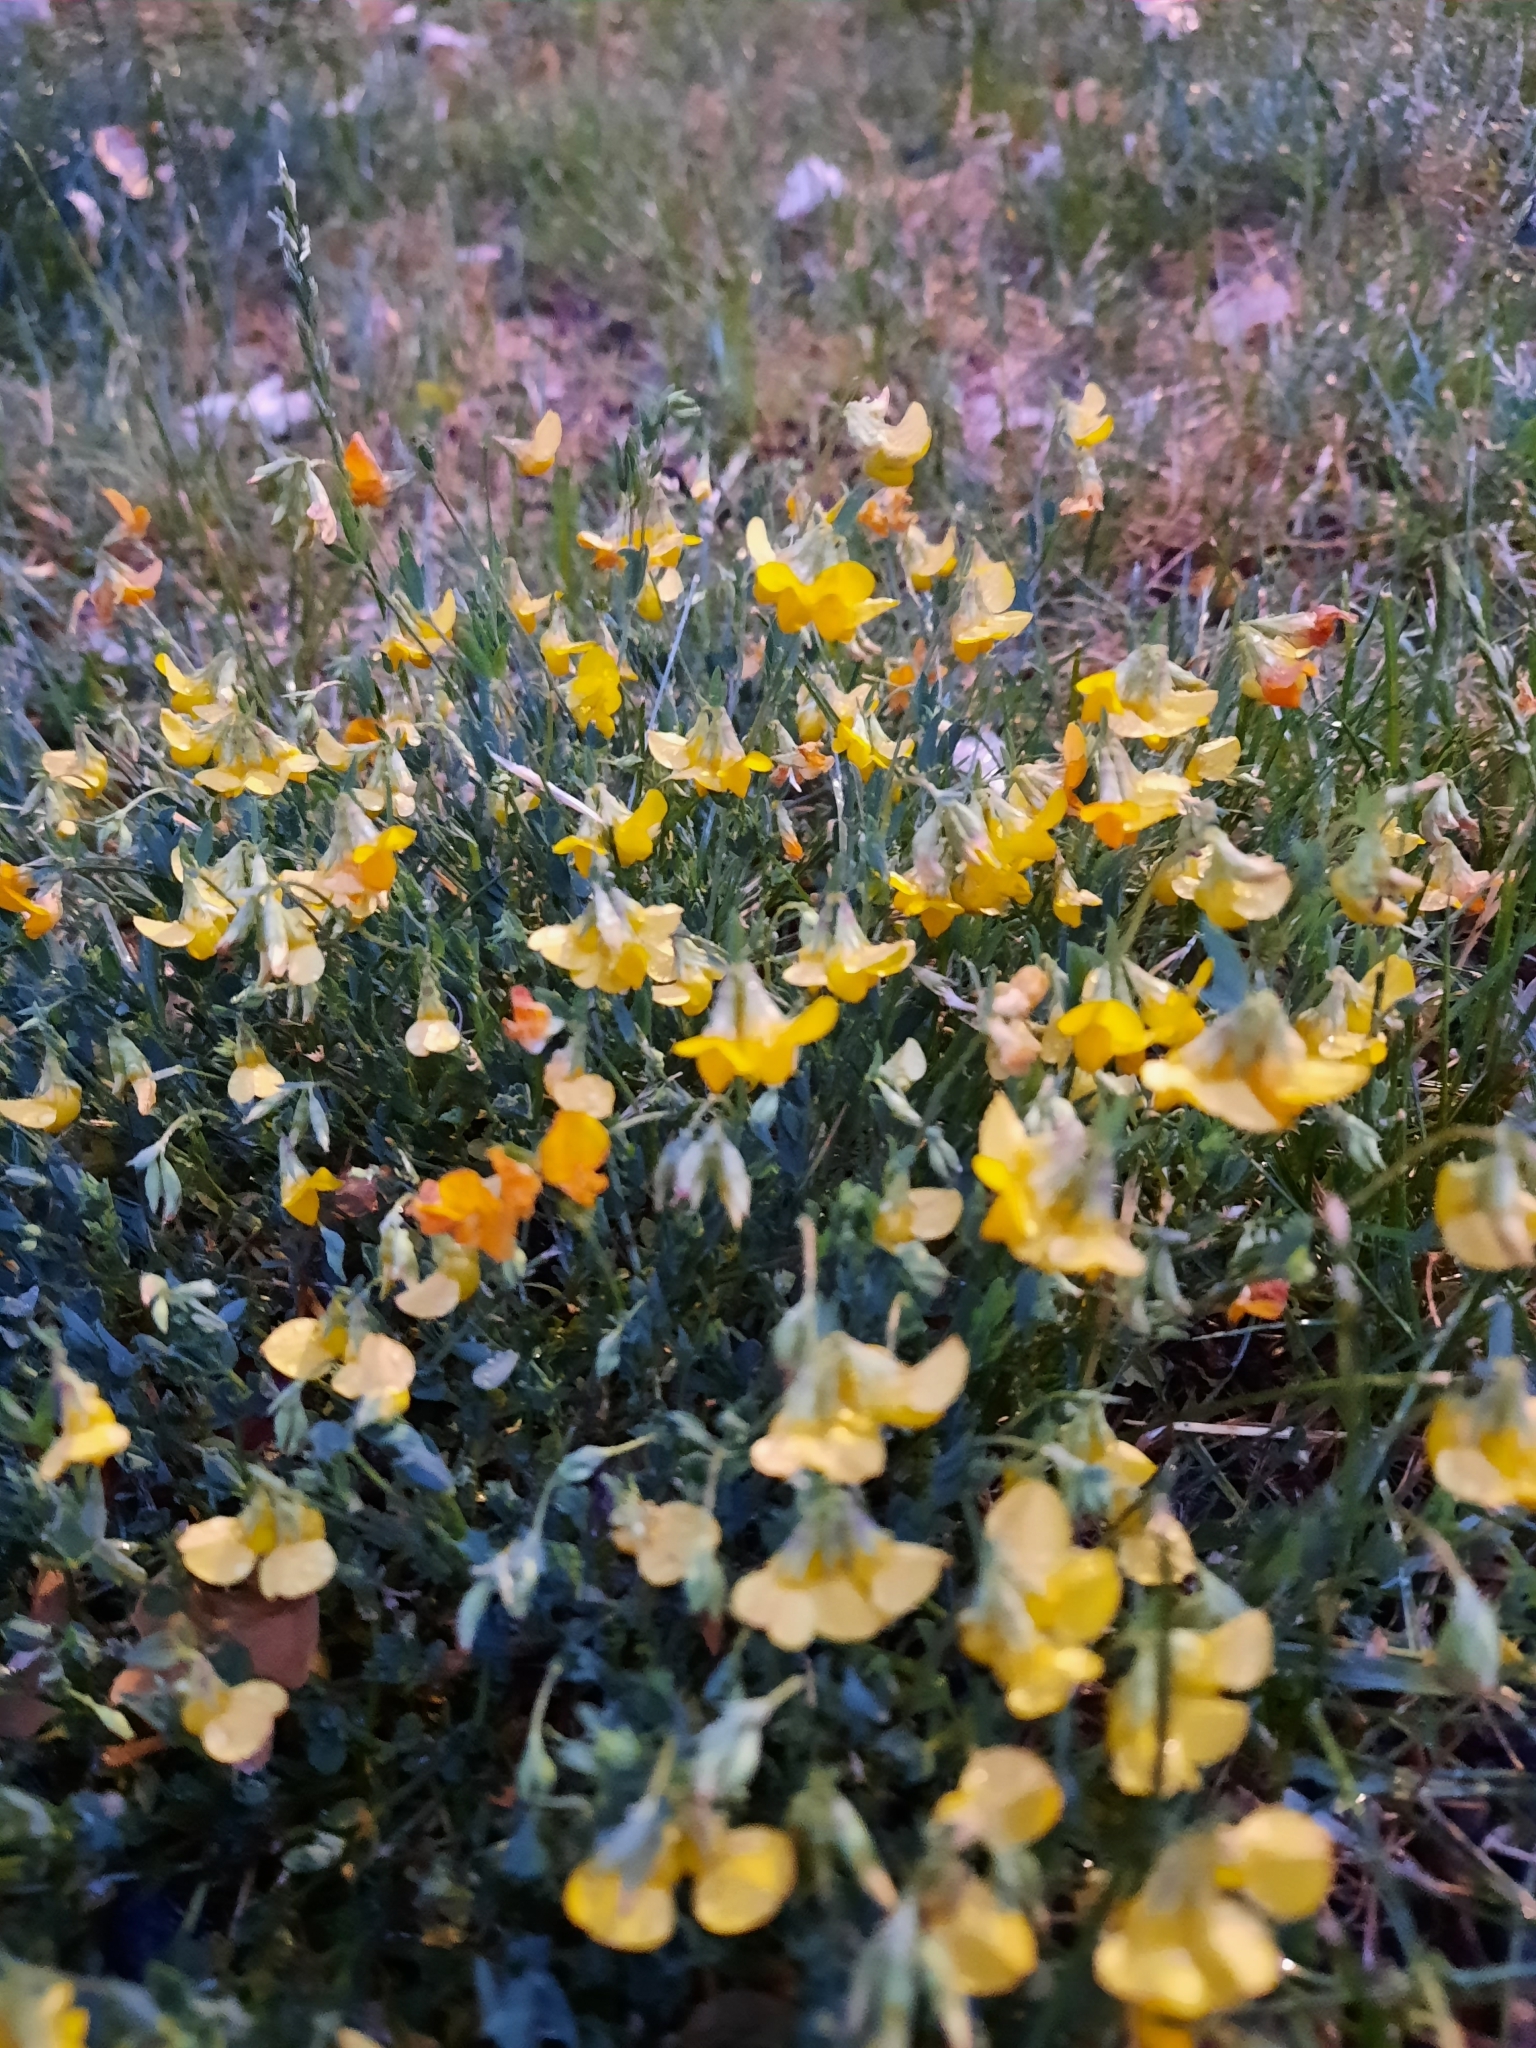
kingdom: Plantae
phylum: Tracheophyta
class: Magnoliopsida
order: Fabales
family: Fabaceae
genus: Lotus
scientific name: Lotus corniculatus
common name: Common bird's-foot-trefoil
